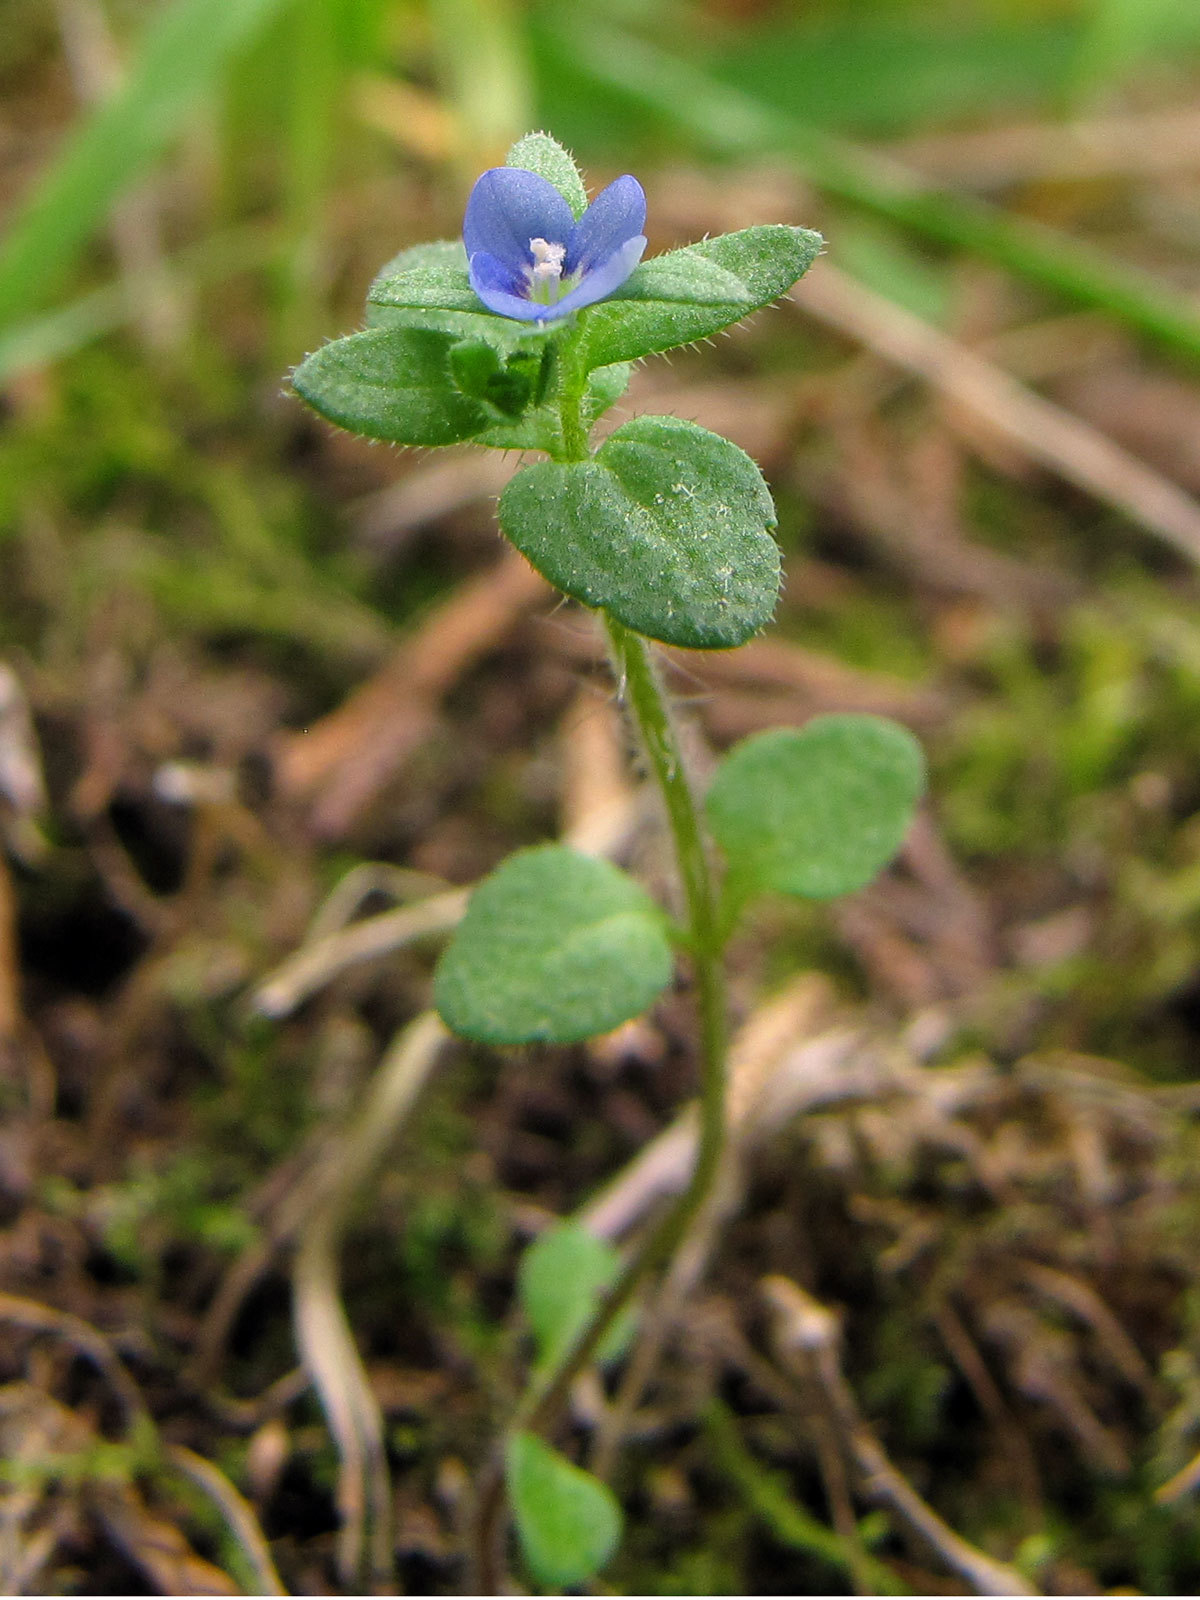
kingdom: Plantae
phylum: Tracheophyta
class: Magnoliopsida
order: Lamiales
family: Plantaginaceae
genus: Veronica
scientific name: Veronica arvensis
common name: Corn speedwell
